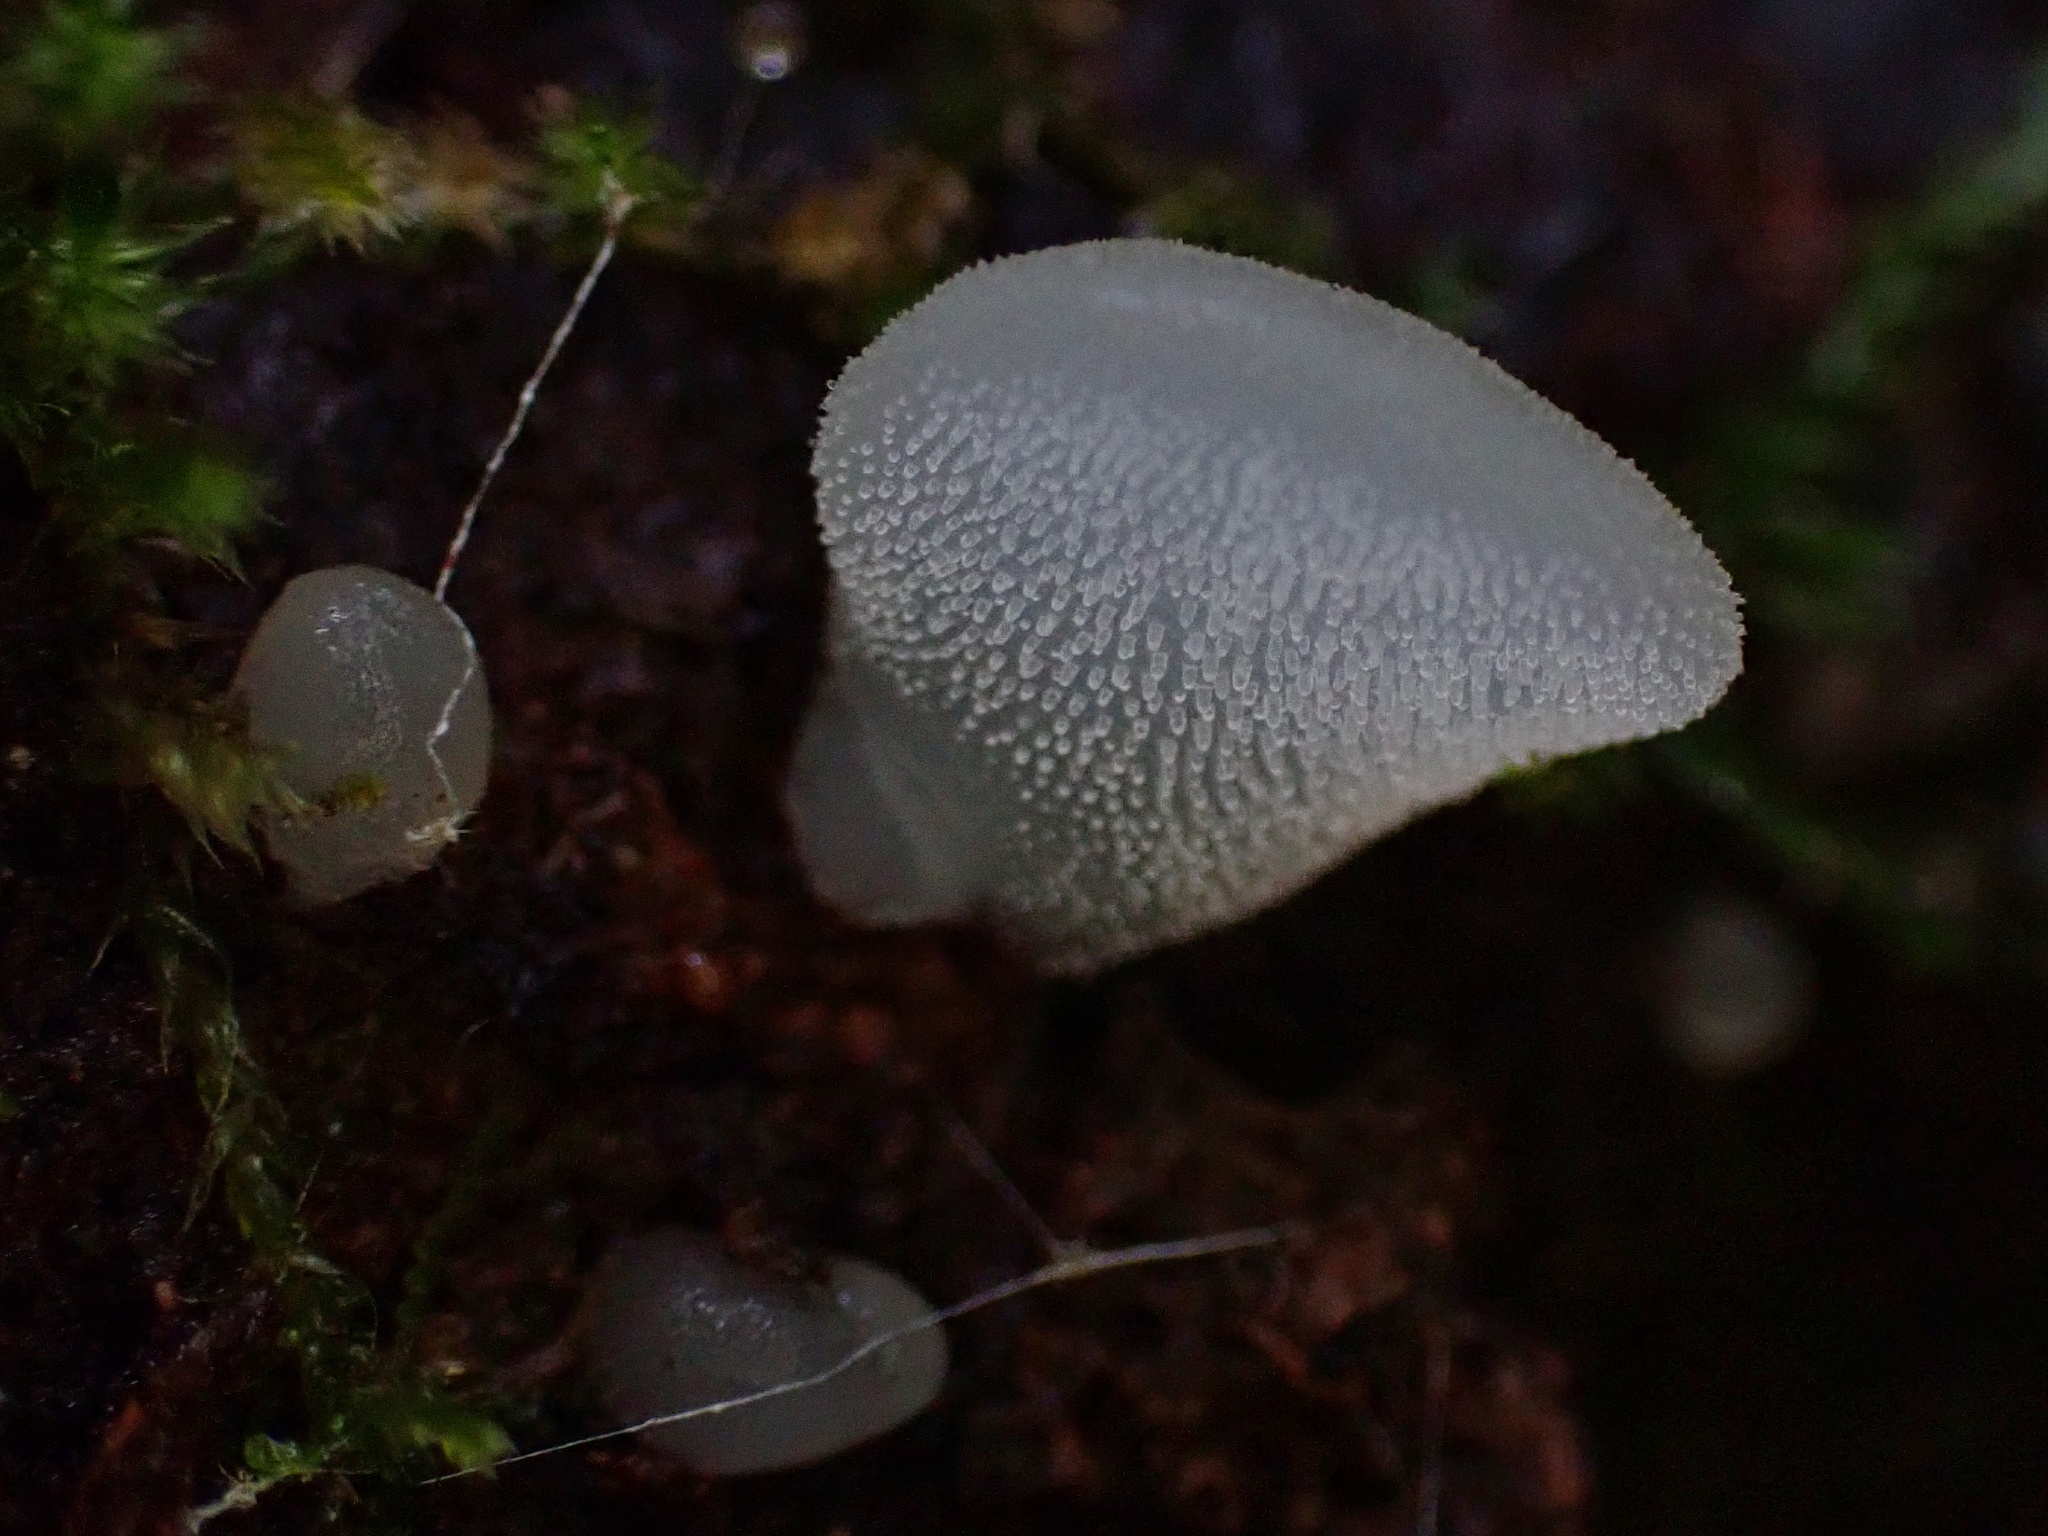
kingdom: Fungi
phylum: Basidiomycota
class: Agaricomycetes
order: Auriculariales
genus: Pseudohydnum
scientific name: Pseudohydnum gelatinosum
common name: Jelly tongue
